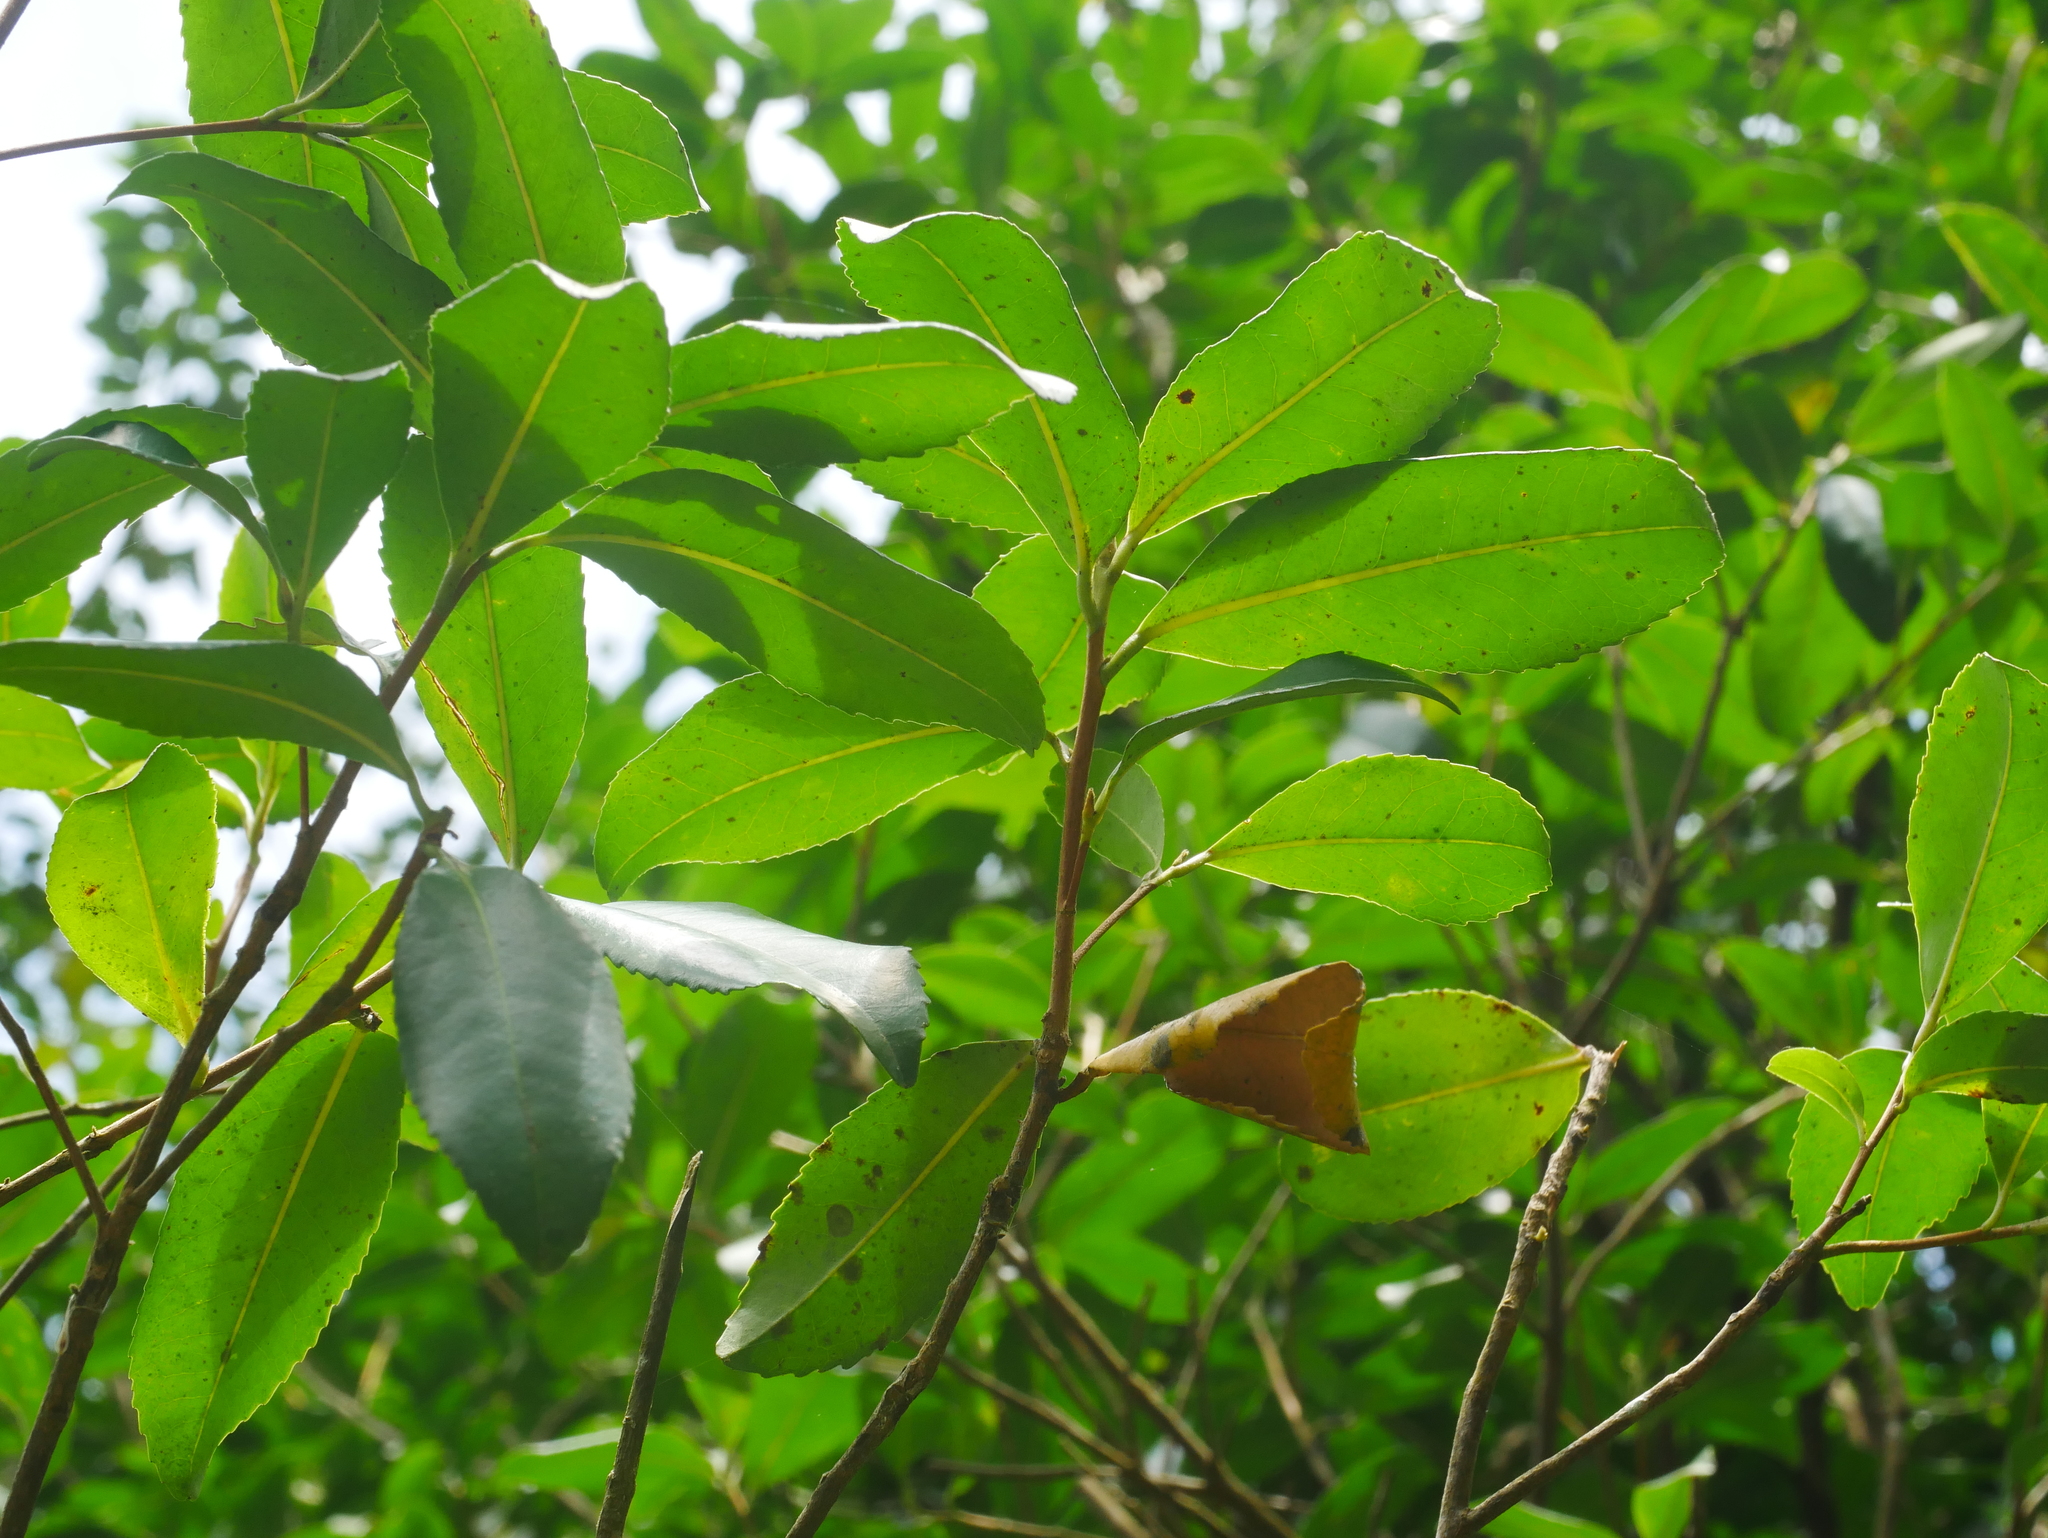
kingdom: Plantae
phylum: Tracheophyta
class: Magnoliopsida
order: Ericales
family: Theaceae
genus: Pyrenaria
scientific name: Pyrenaria microcarpa
